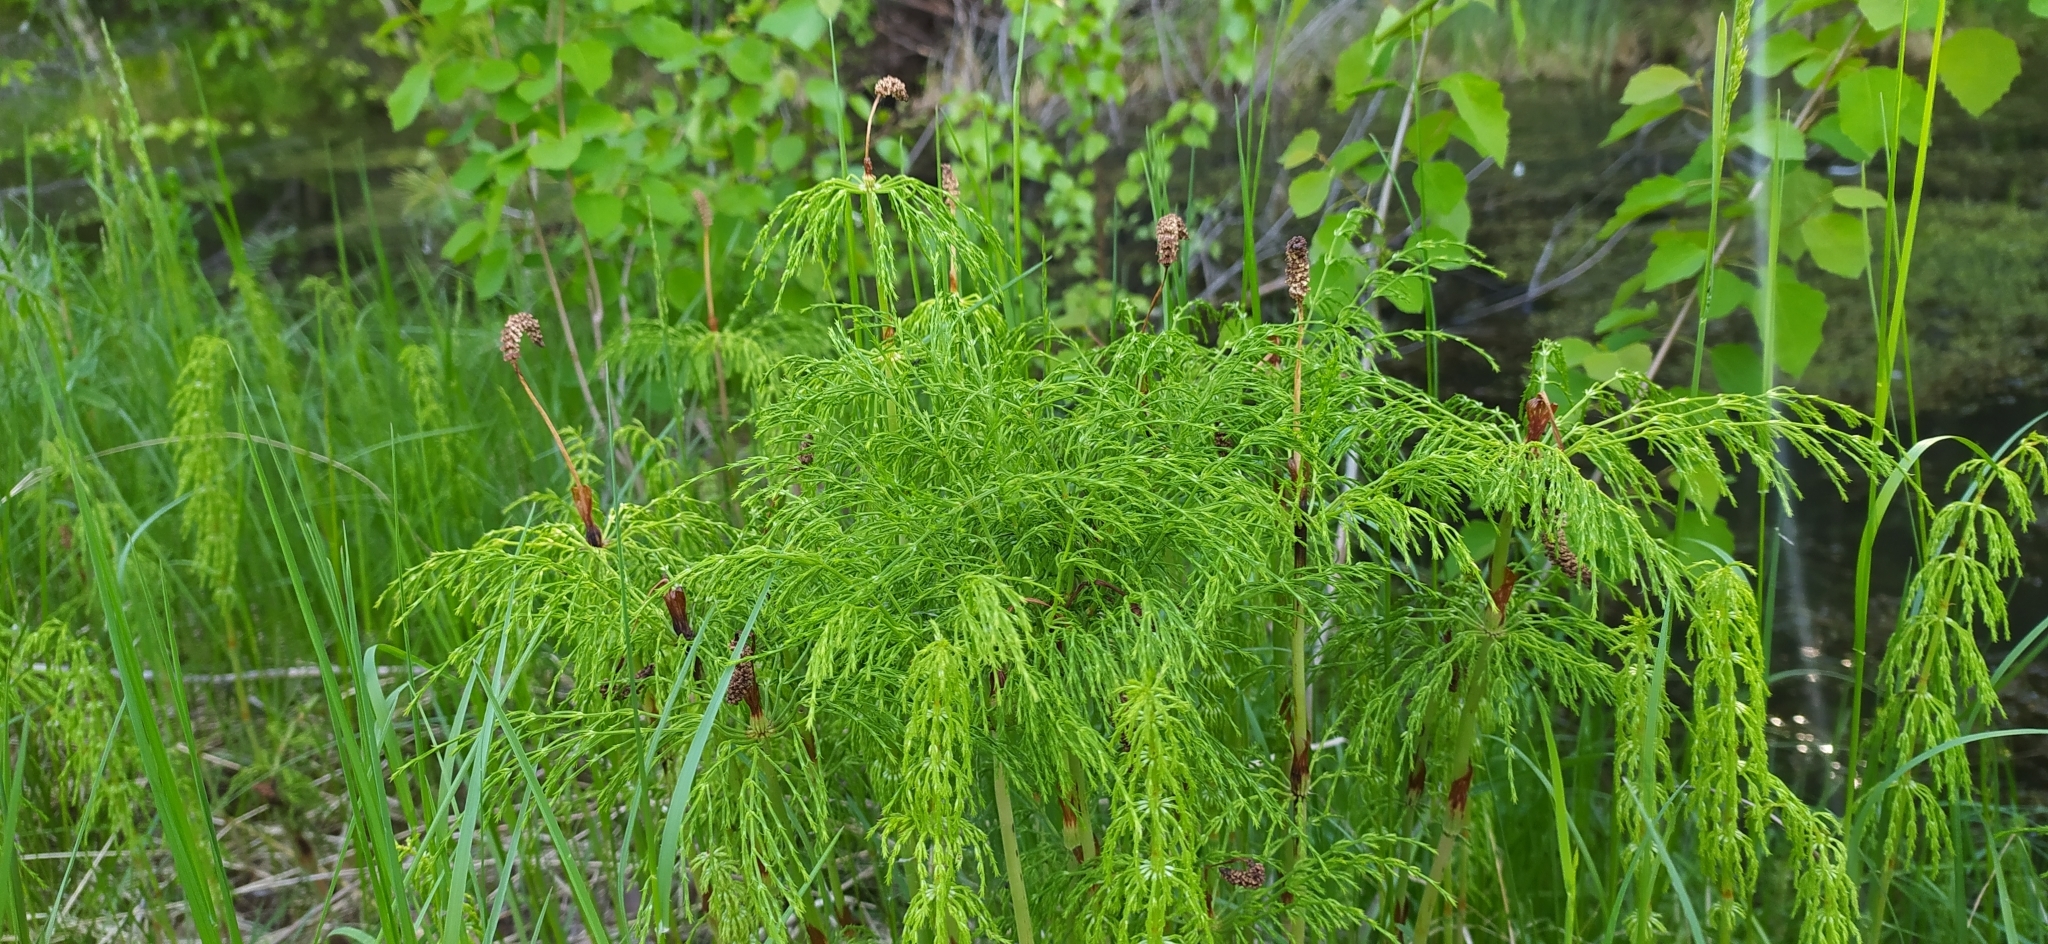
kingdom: Plantae
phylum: Tracheophyta
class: Polypodiopsida
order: Equisetales
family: Equisetaceae
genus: Equisetum
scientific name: Equisetum sylvaticum
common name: Wood horsetail
